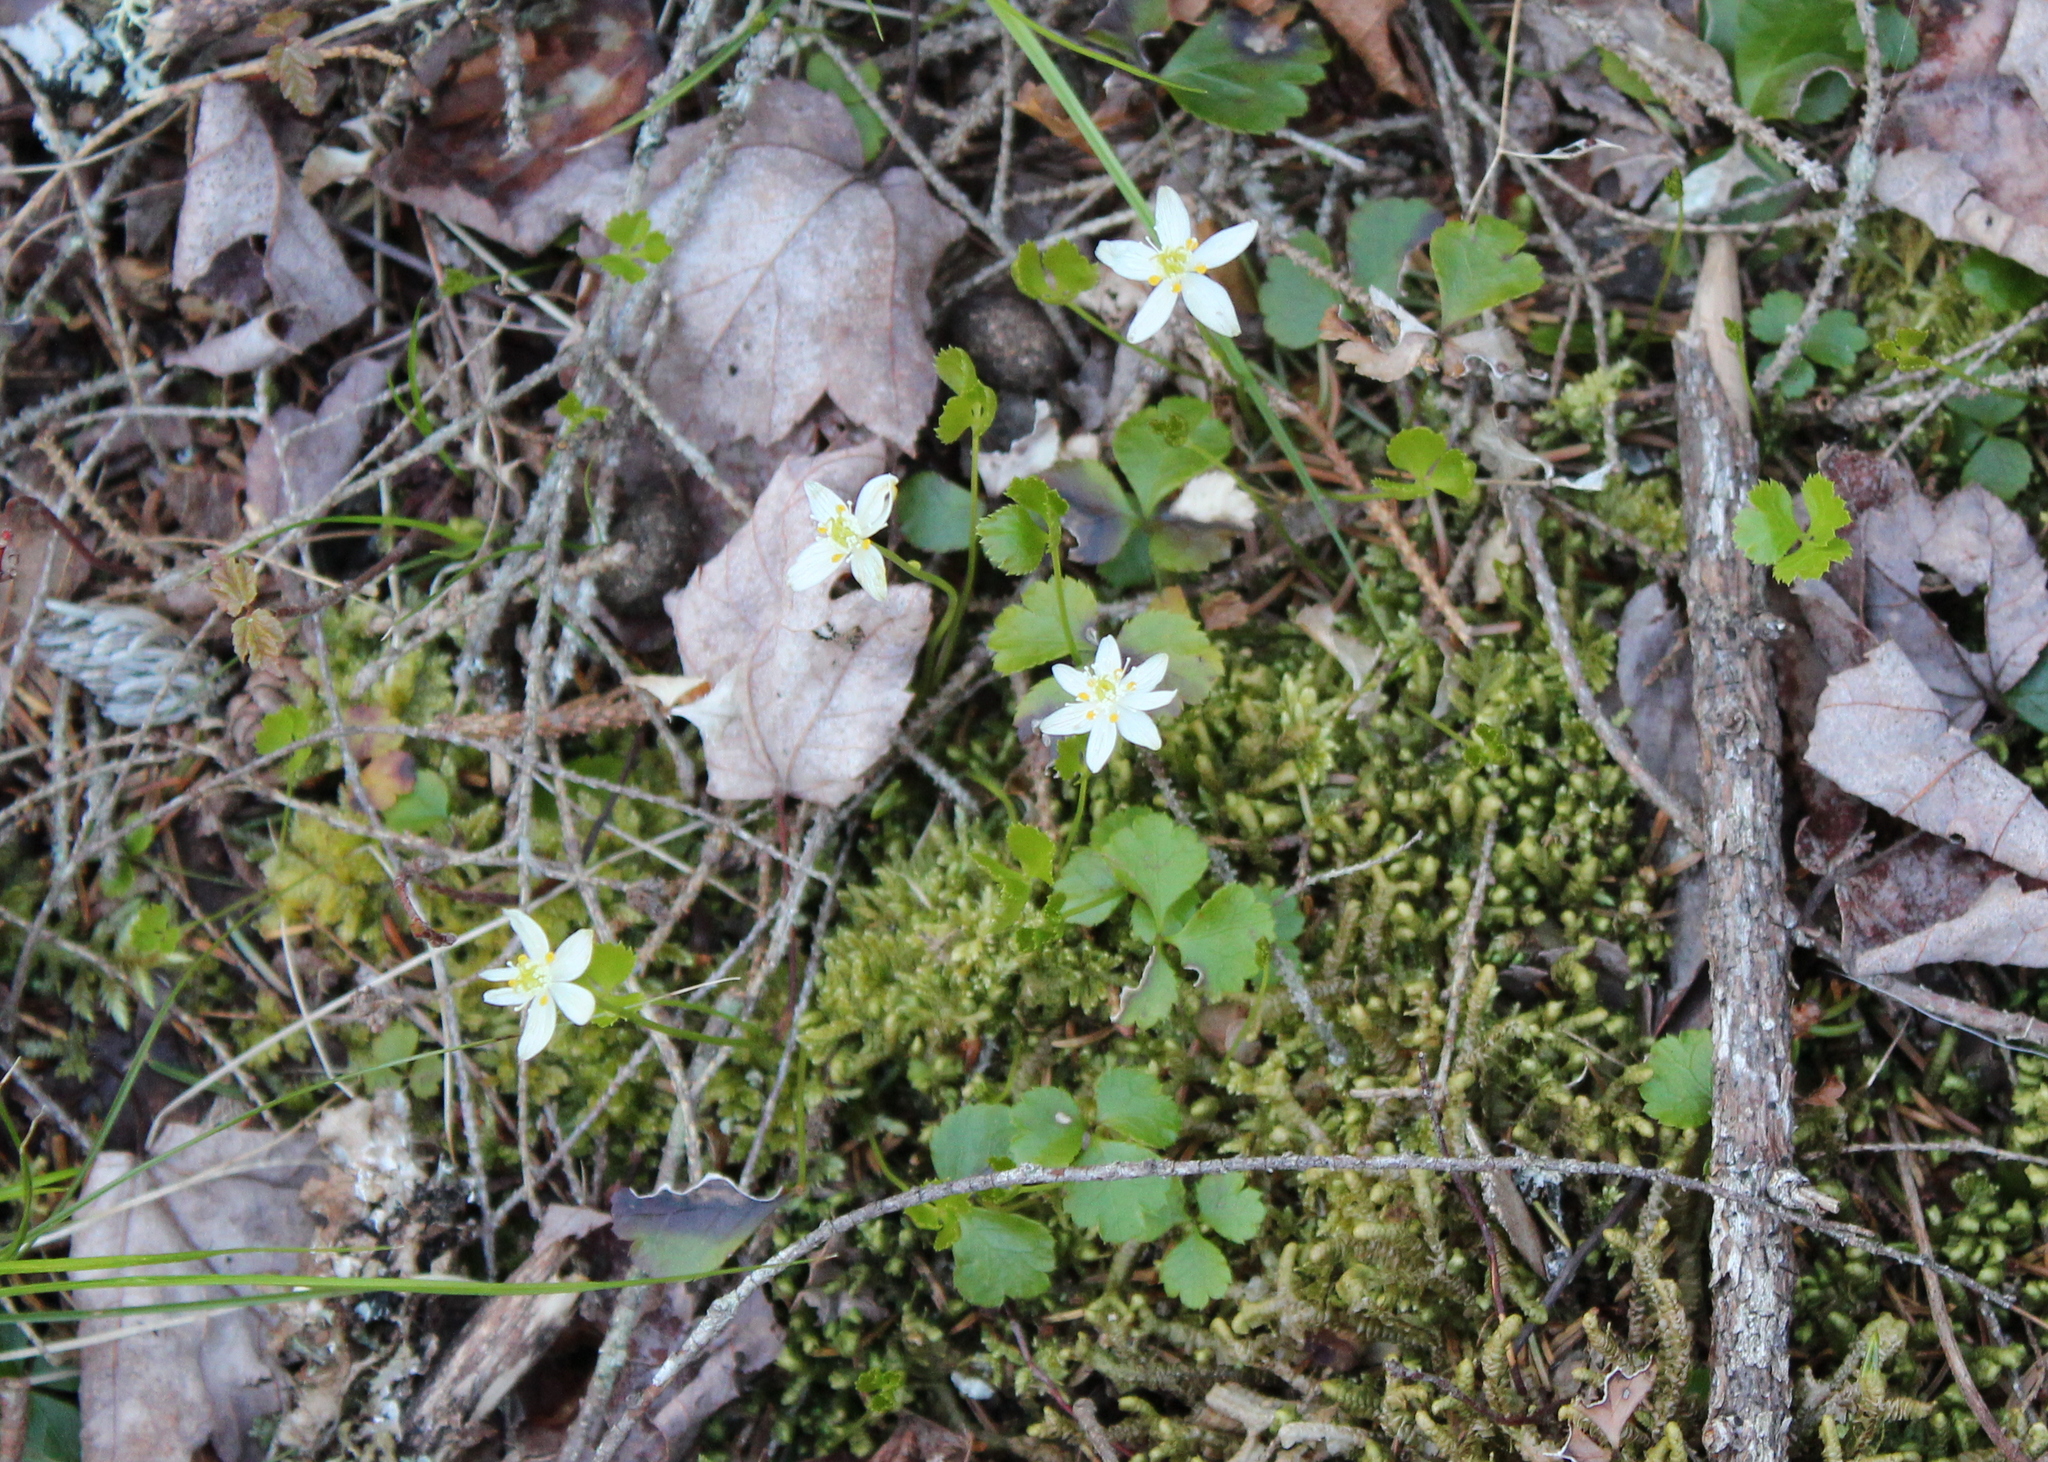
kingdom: Plantae
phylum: Tracheophyta
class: Magnoliopsida
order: Ranunculales
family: Ranunculaceae
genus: Coptis
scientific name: Coptis trifolia
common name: Canker-root
